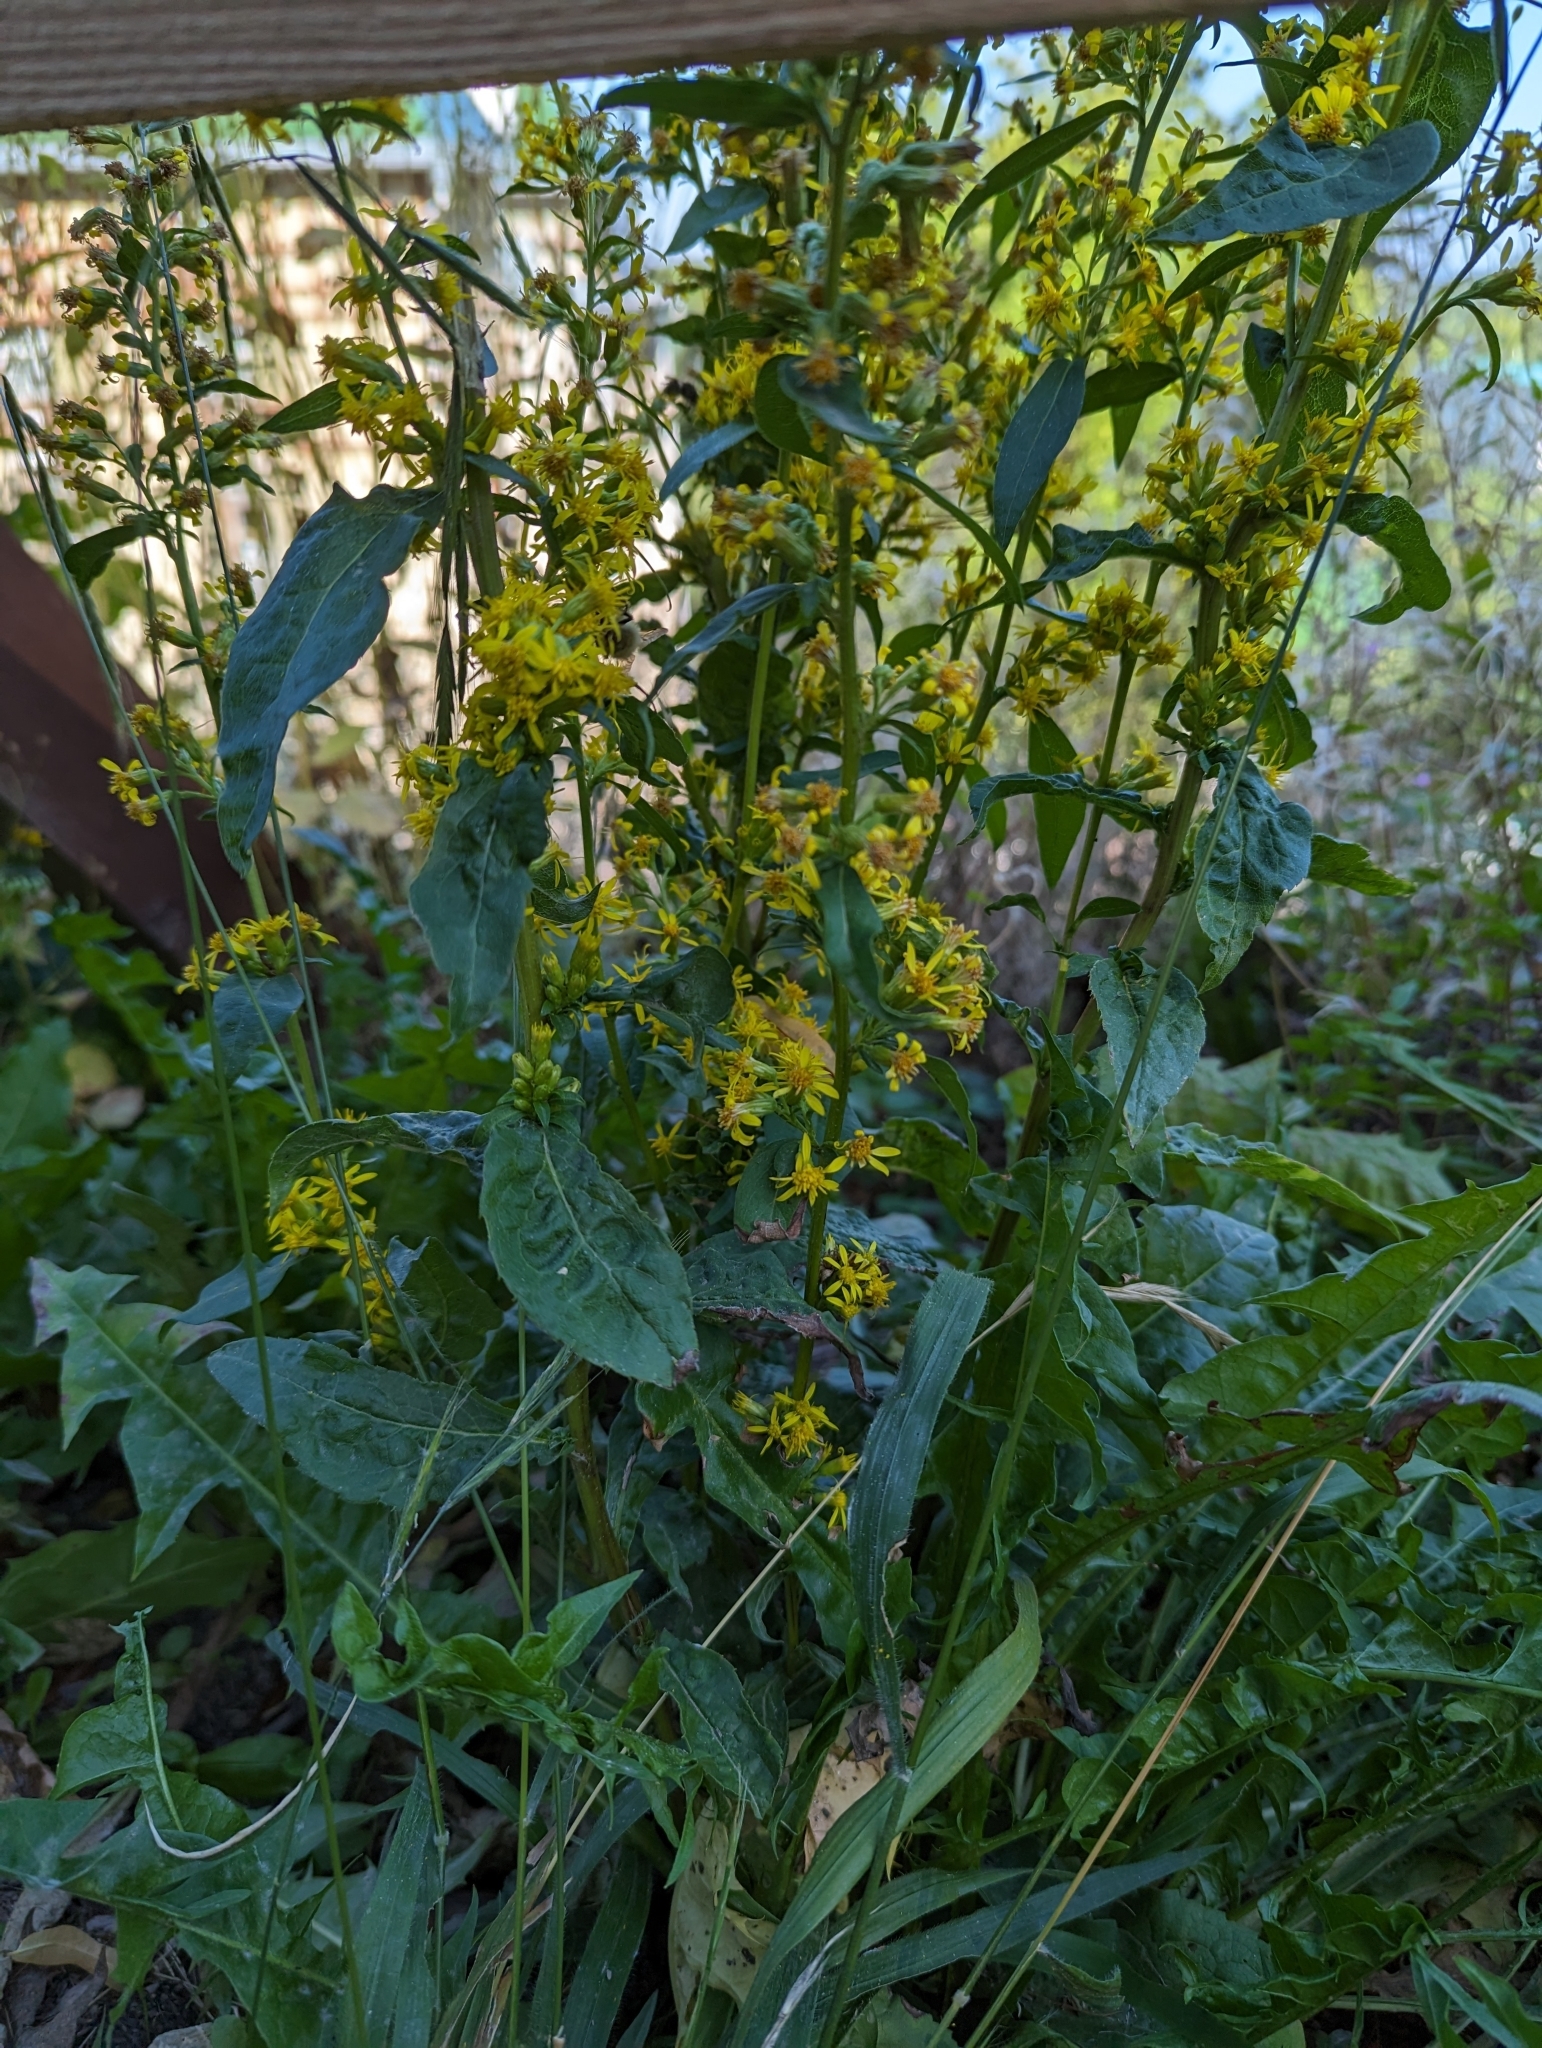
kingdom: Plantae
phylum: Tracheophyta
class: Magnoliopsida
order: Asterales
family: Asteraceae
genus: Solidago
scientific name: Solidago virgaurea
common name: Goldenrod
